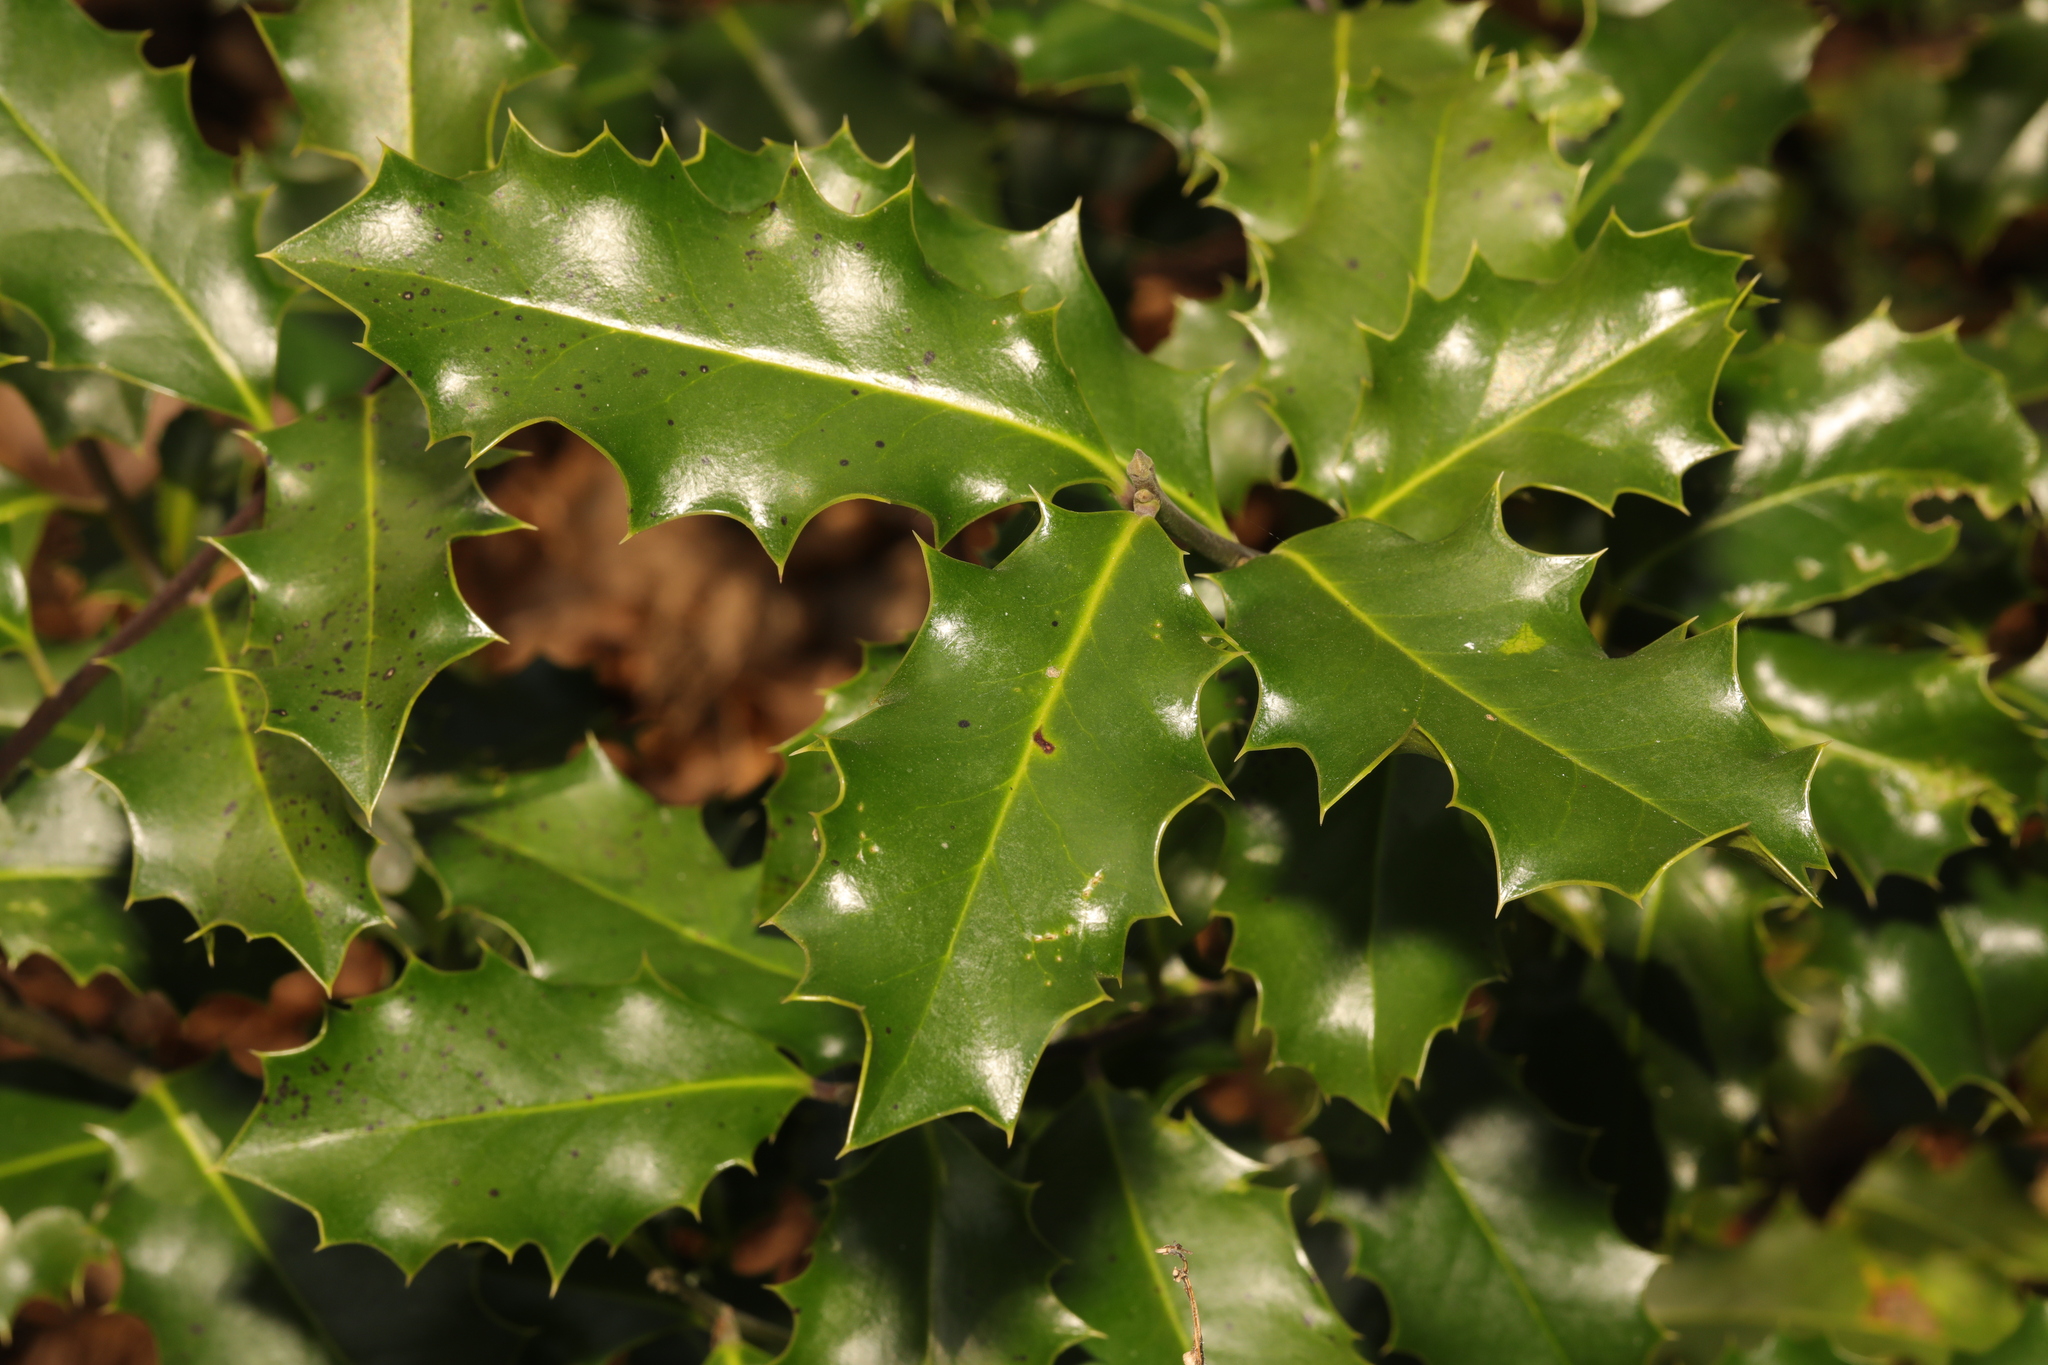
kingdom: Plantae
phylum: Tracheophyta
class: Magnoliopsida
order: Aquifoliales
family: Aquifoliaceae
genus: Ilex
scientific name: Ilex aquifolium
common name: English holly
